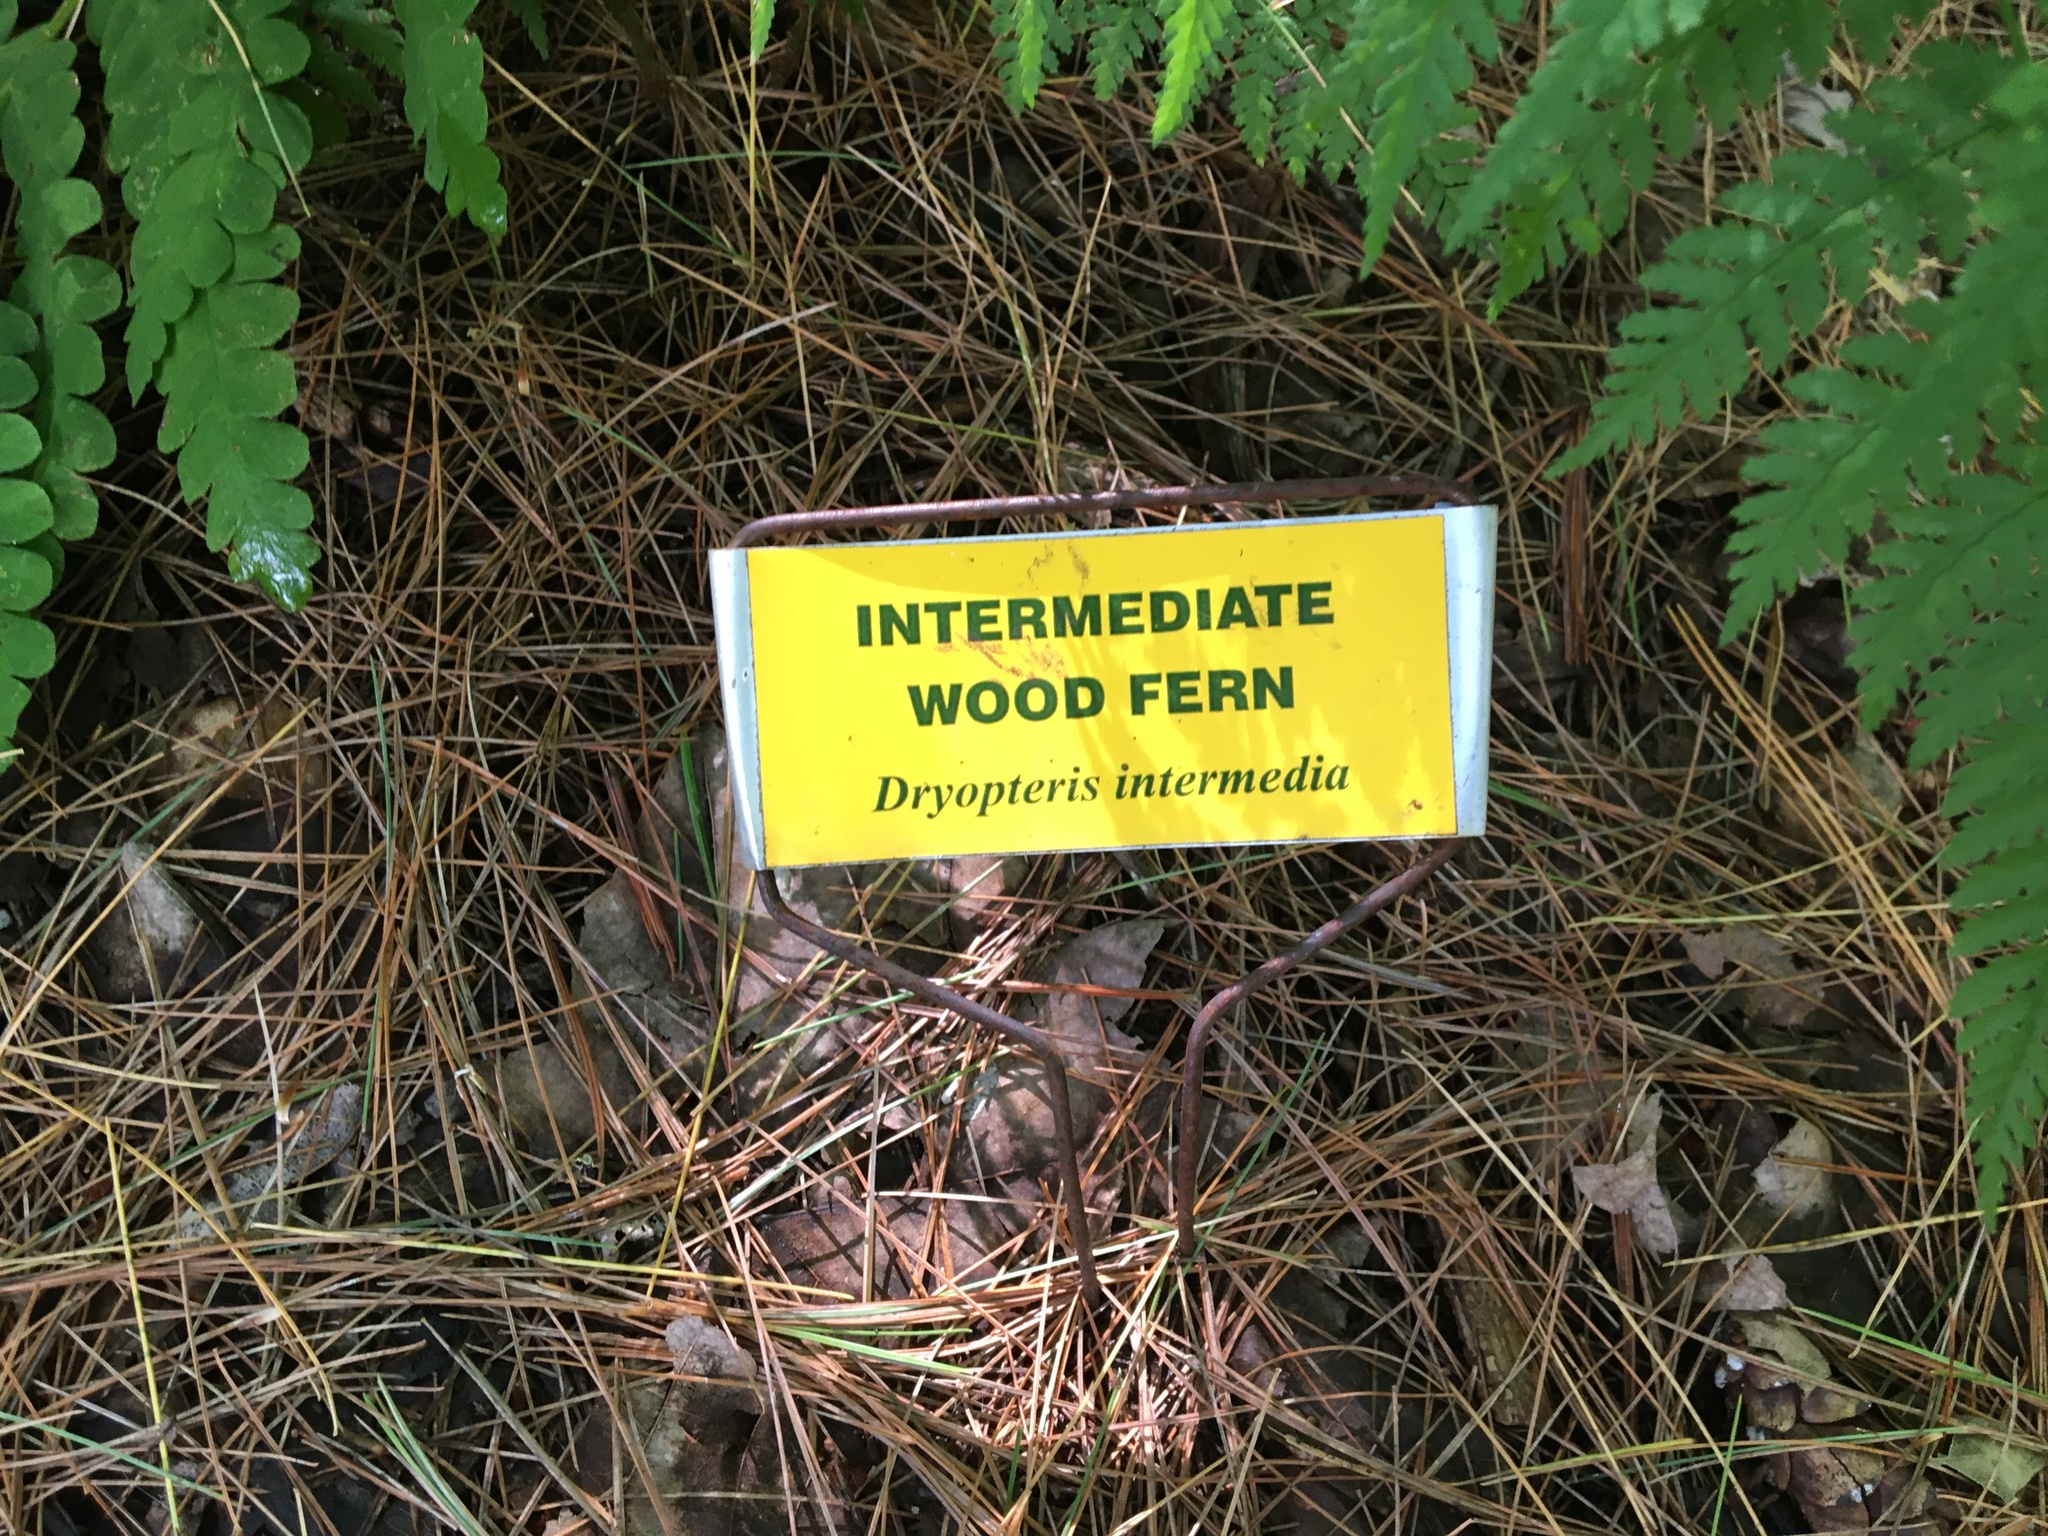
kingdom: Plantae
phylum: Tracheophyta
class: Polypodiopsida
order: Polypodiales
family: Dryopteridaceae
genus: Dryopteris
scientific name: Dryopteris intermedia
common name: Evergreen wood fern
